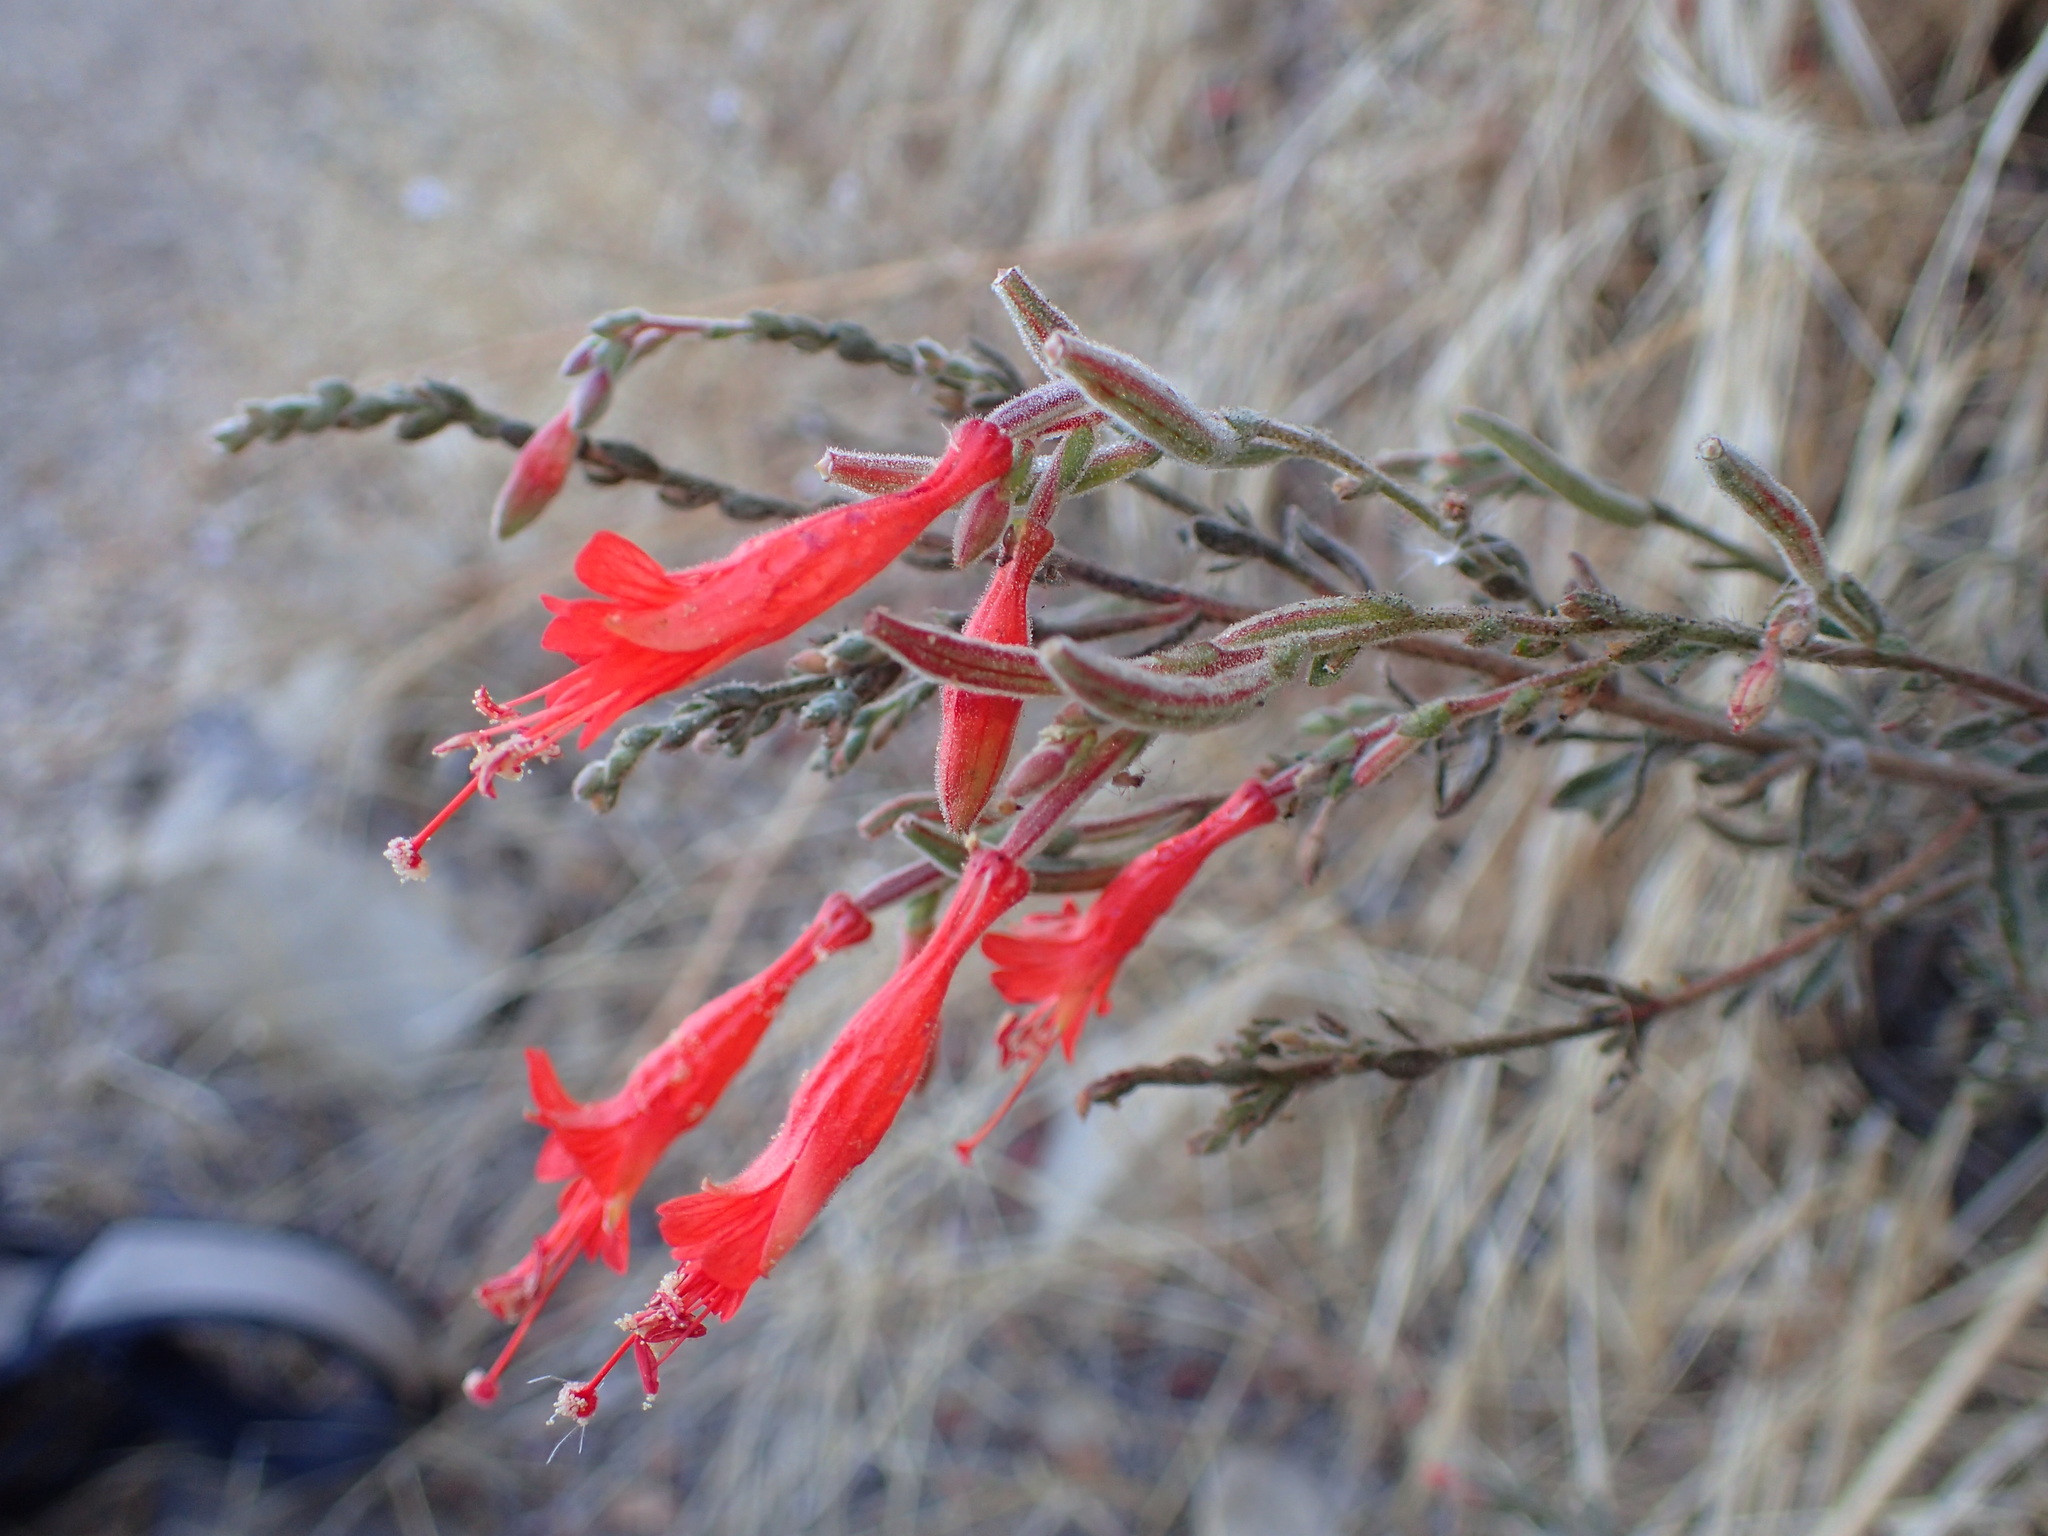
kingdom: Plantae
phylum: Tracheophyta
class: Magnoliopsida
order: Myrtales
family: Onagraceae
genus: Epilobium
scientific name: Epilobium canum
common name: California-fuchsia
